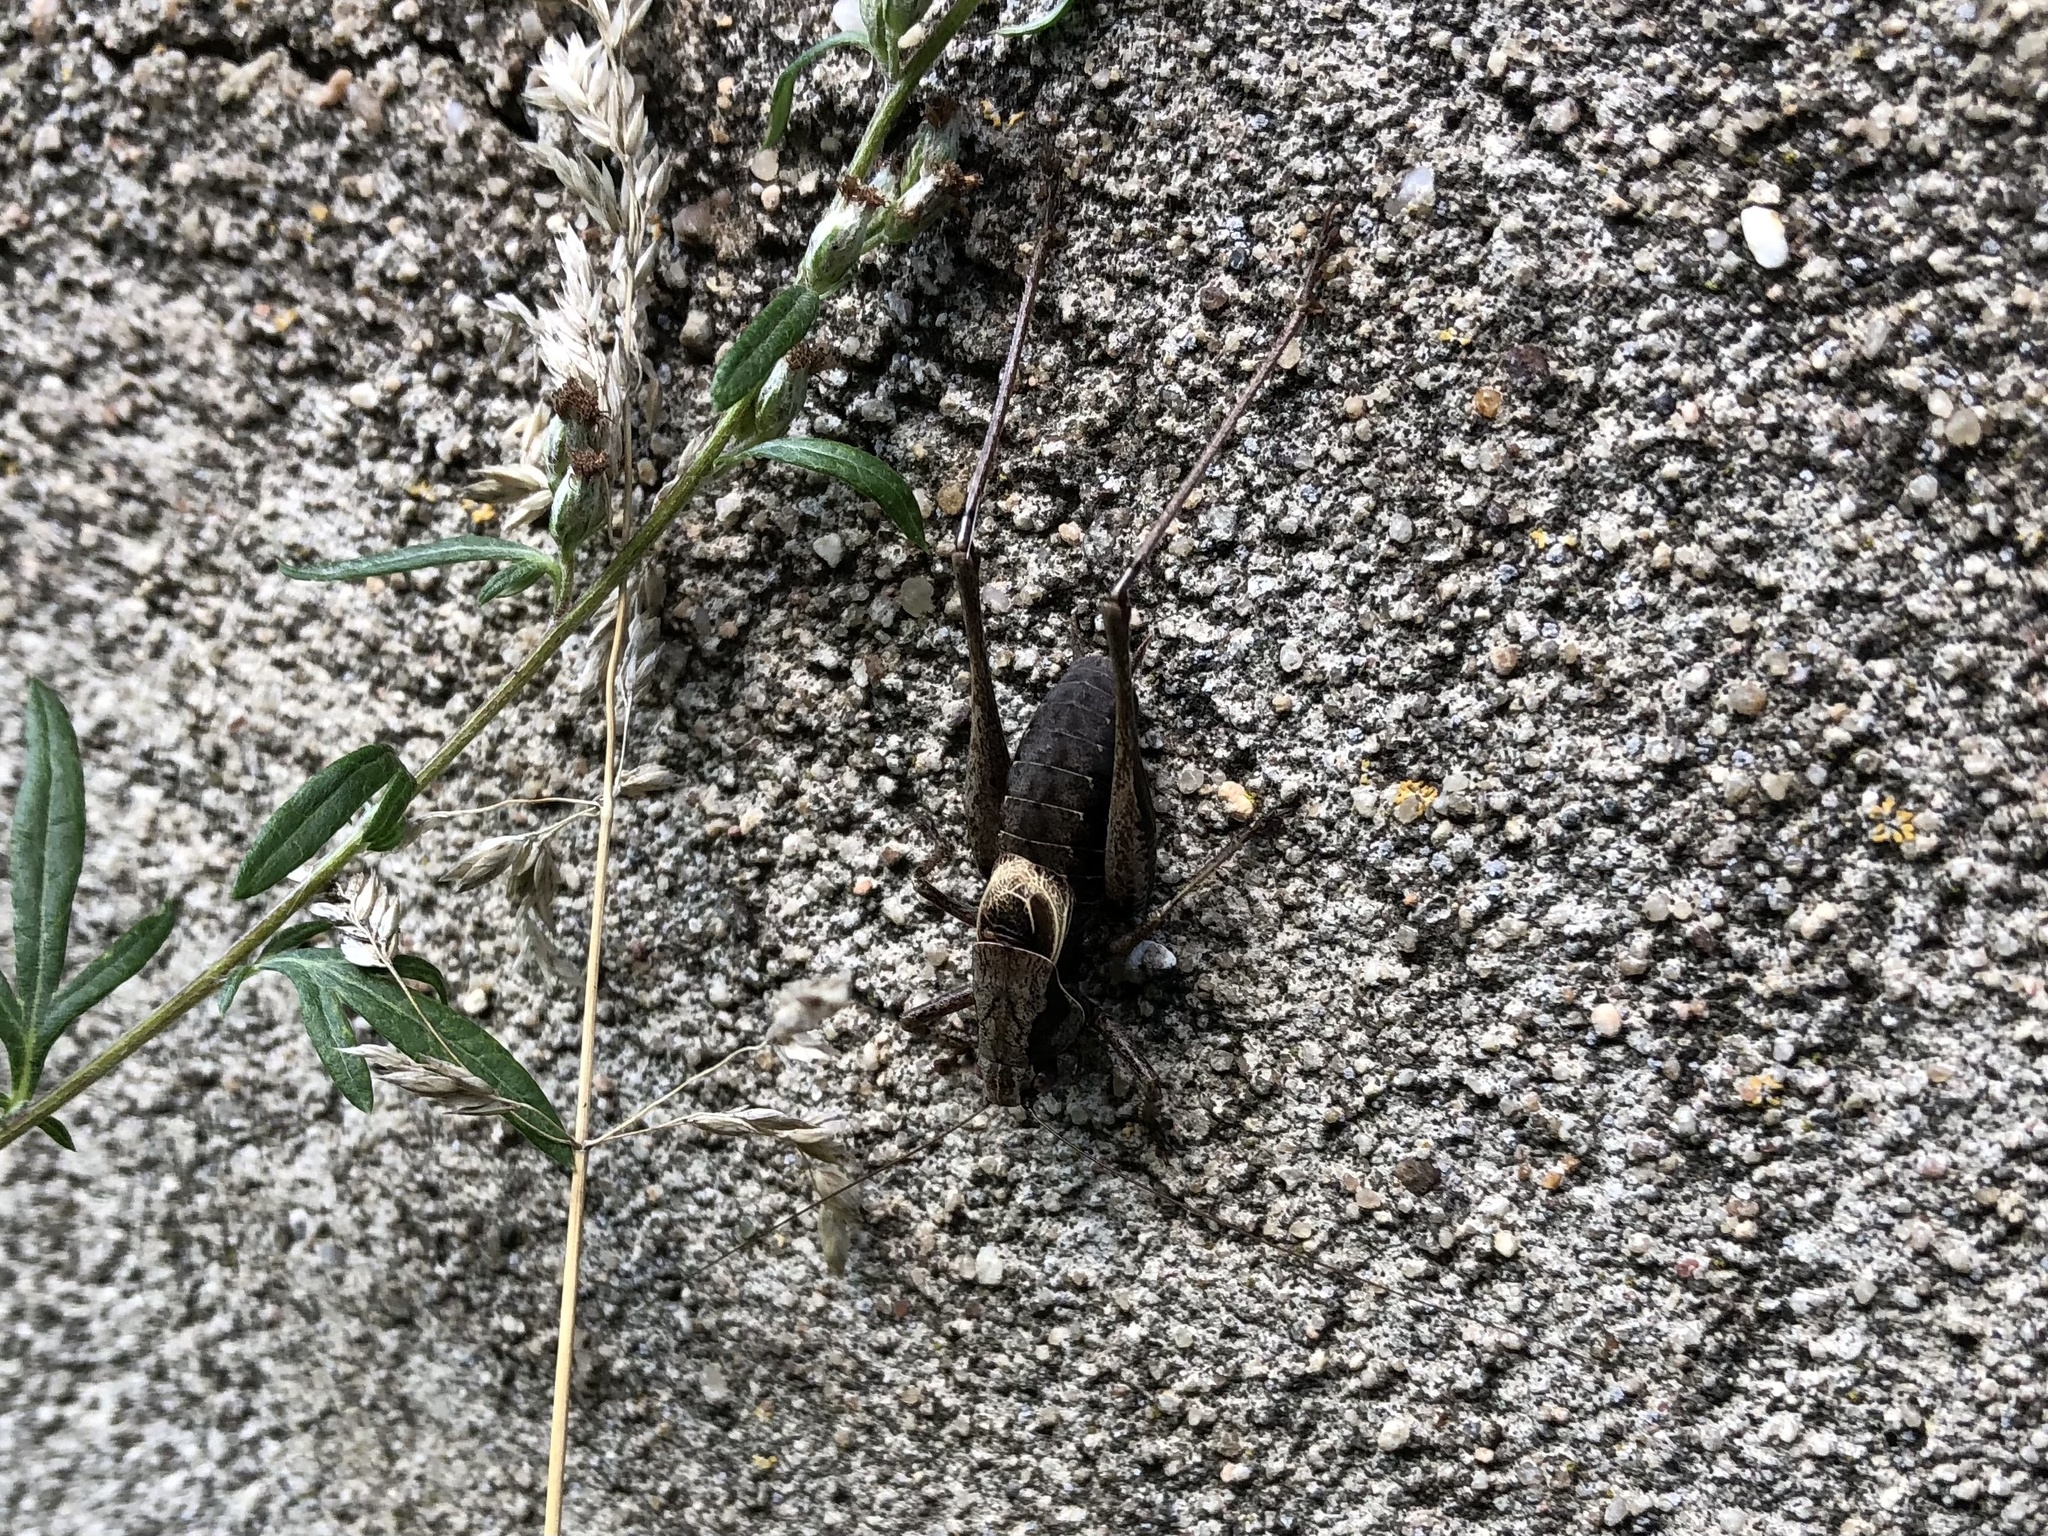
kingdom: Animalia
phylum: Arthropoda
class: Insecta
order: Orthoptera
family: Tettigoniidae
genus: Pholidoptera
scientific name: Pholidoptera griseoaptera
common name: Dark bush-cricket
